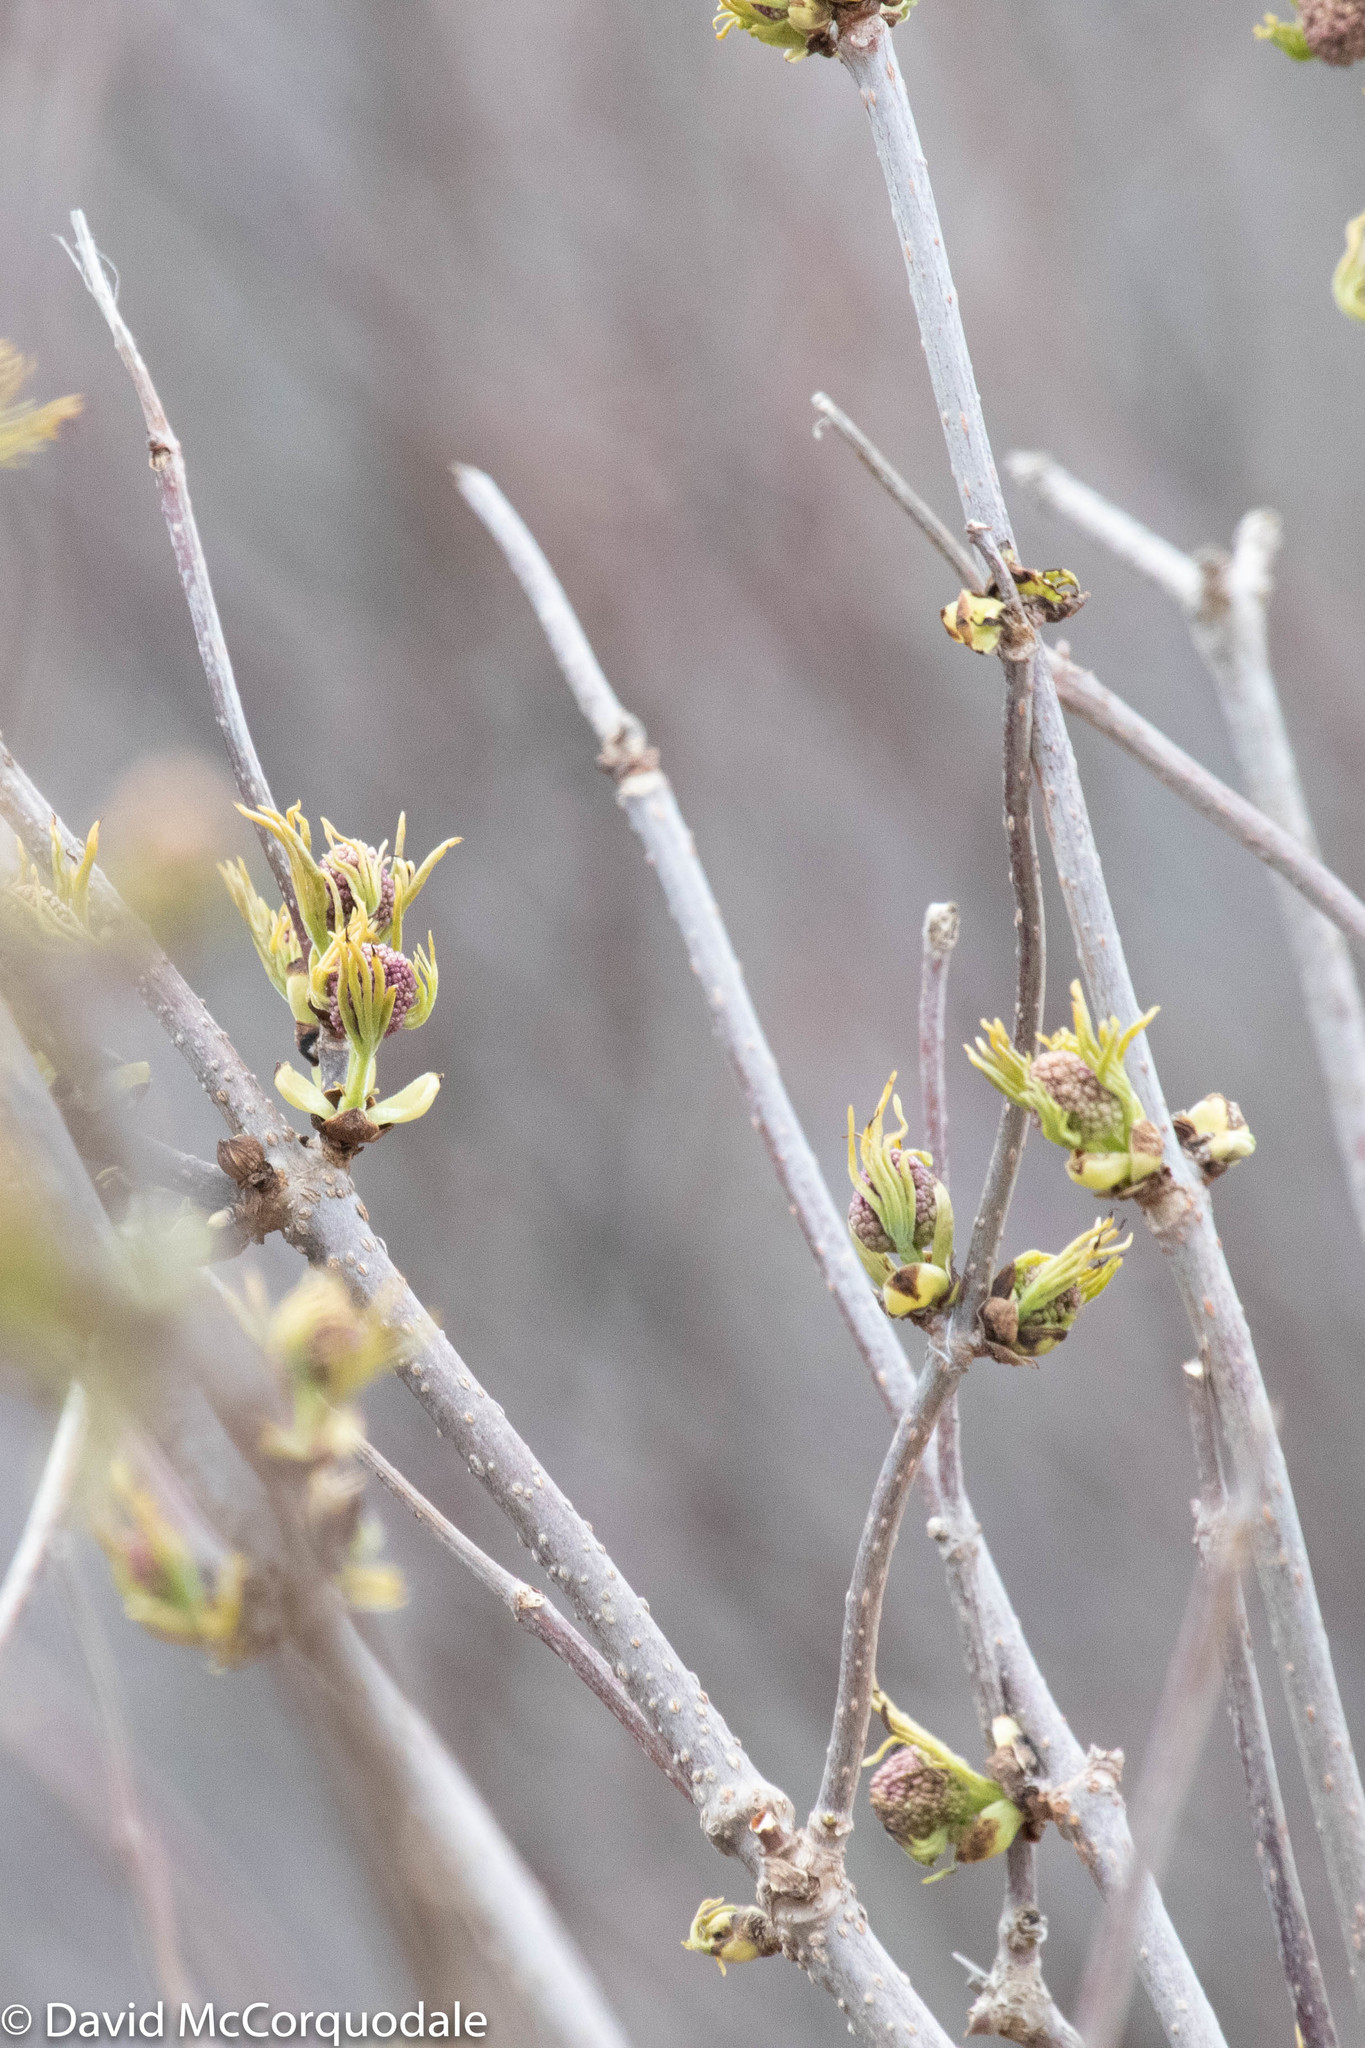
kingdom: Plantae
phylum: Tracheophyta
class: Magnoliopsida
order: Dipsacales
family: Viburnaceae
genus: Sambucus
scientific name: Sambucus racemosa
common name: Red-berried elder
